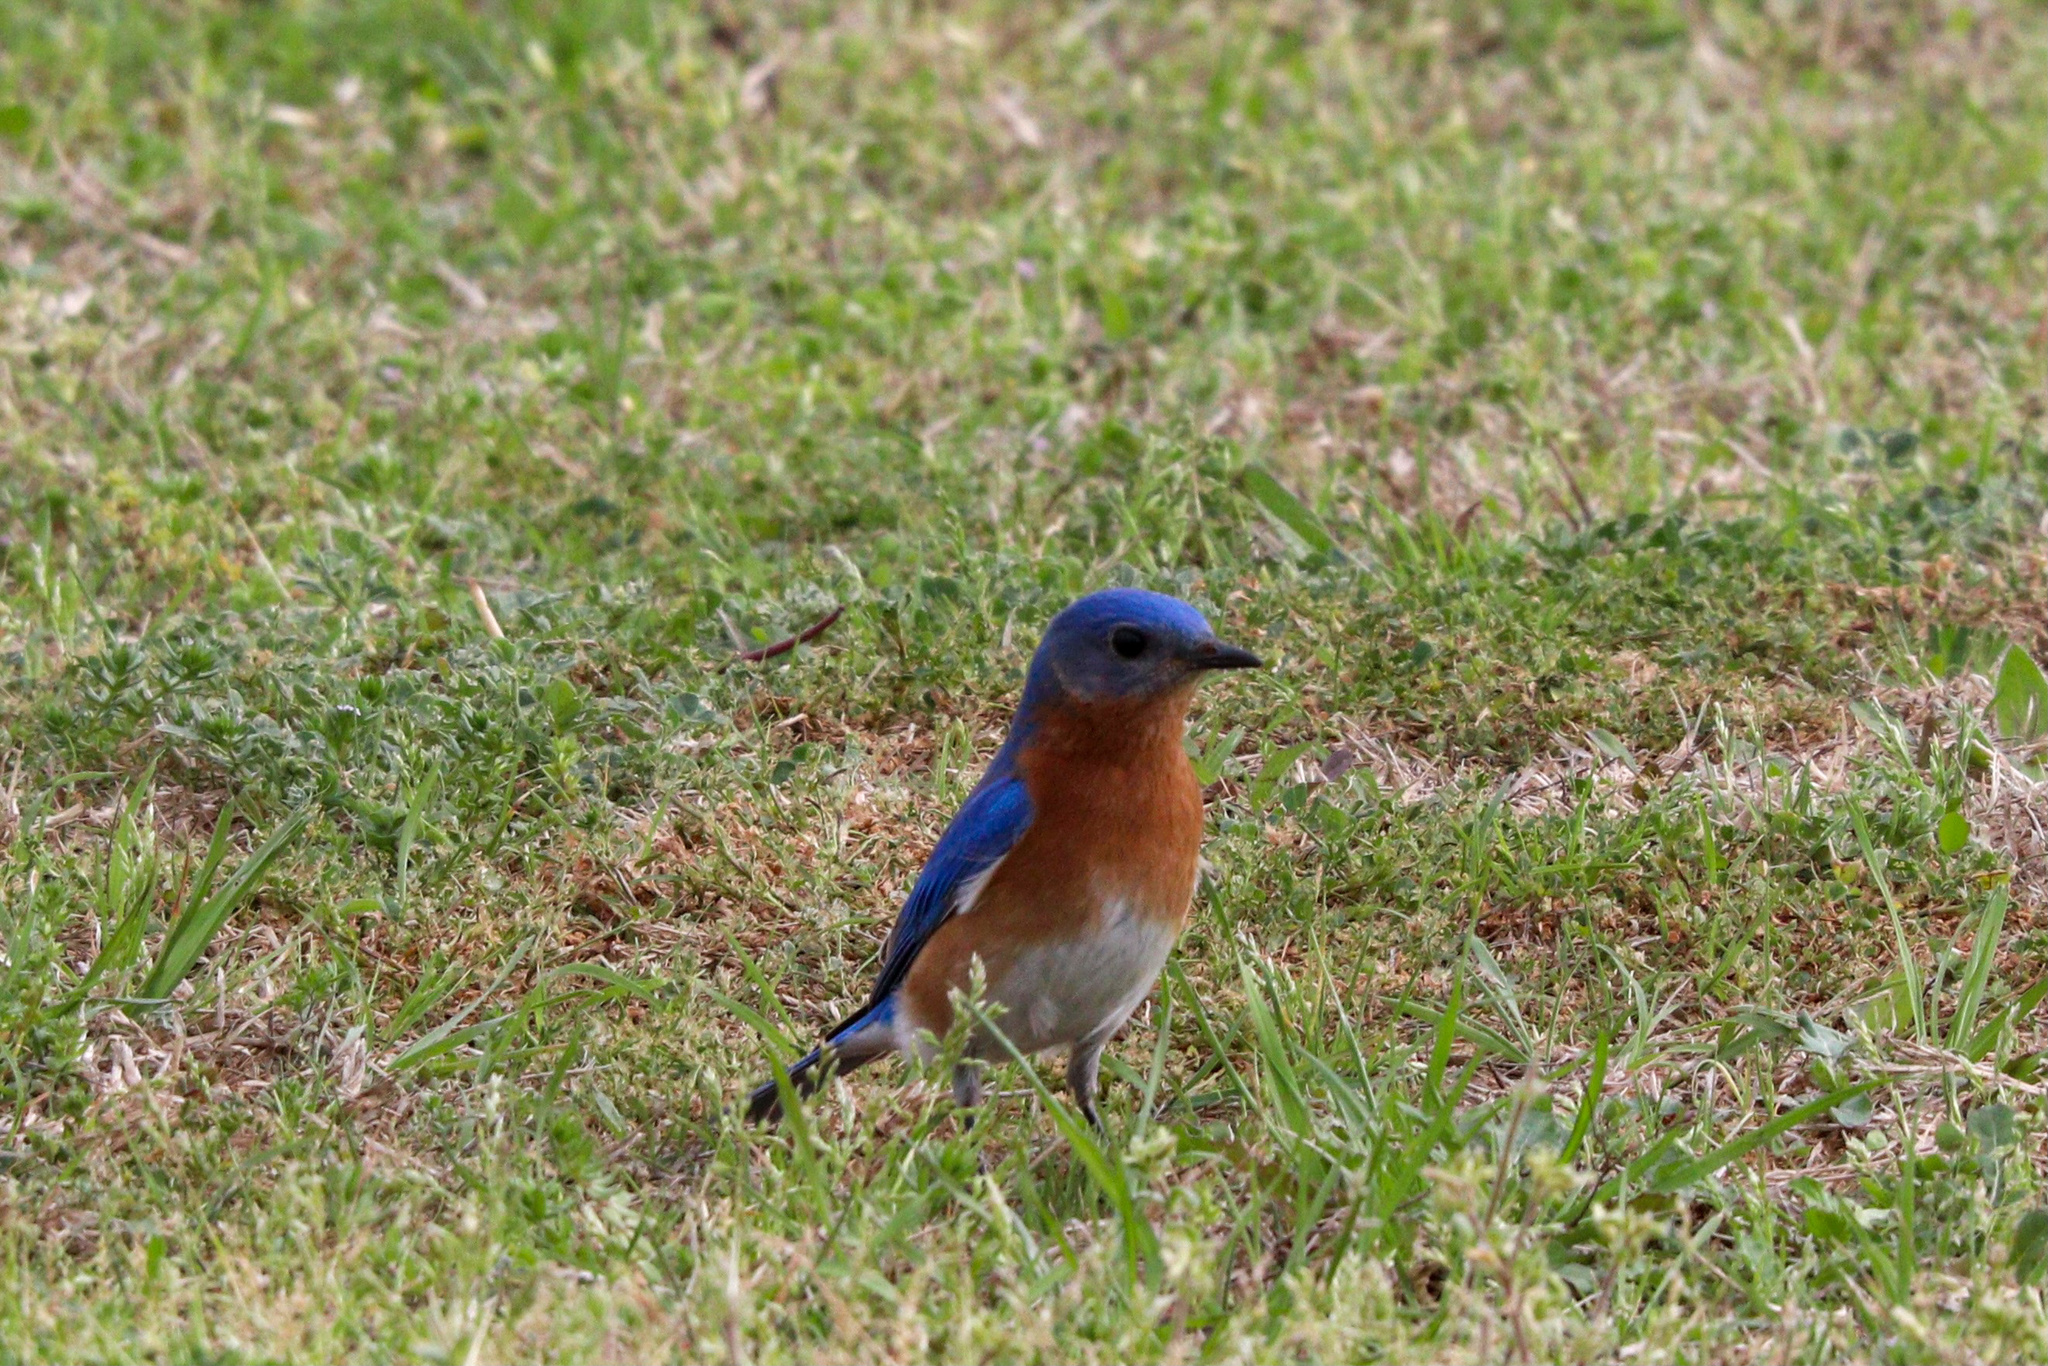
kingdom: Animalia
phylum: Chordata
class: Aves
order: Passeriformes
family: Turdidae
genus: Sialia
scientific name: Sialia sialis
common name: Eastern bluebird
